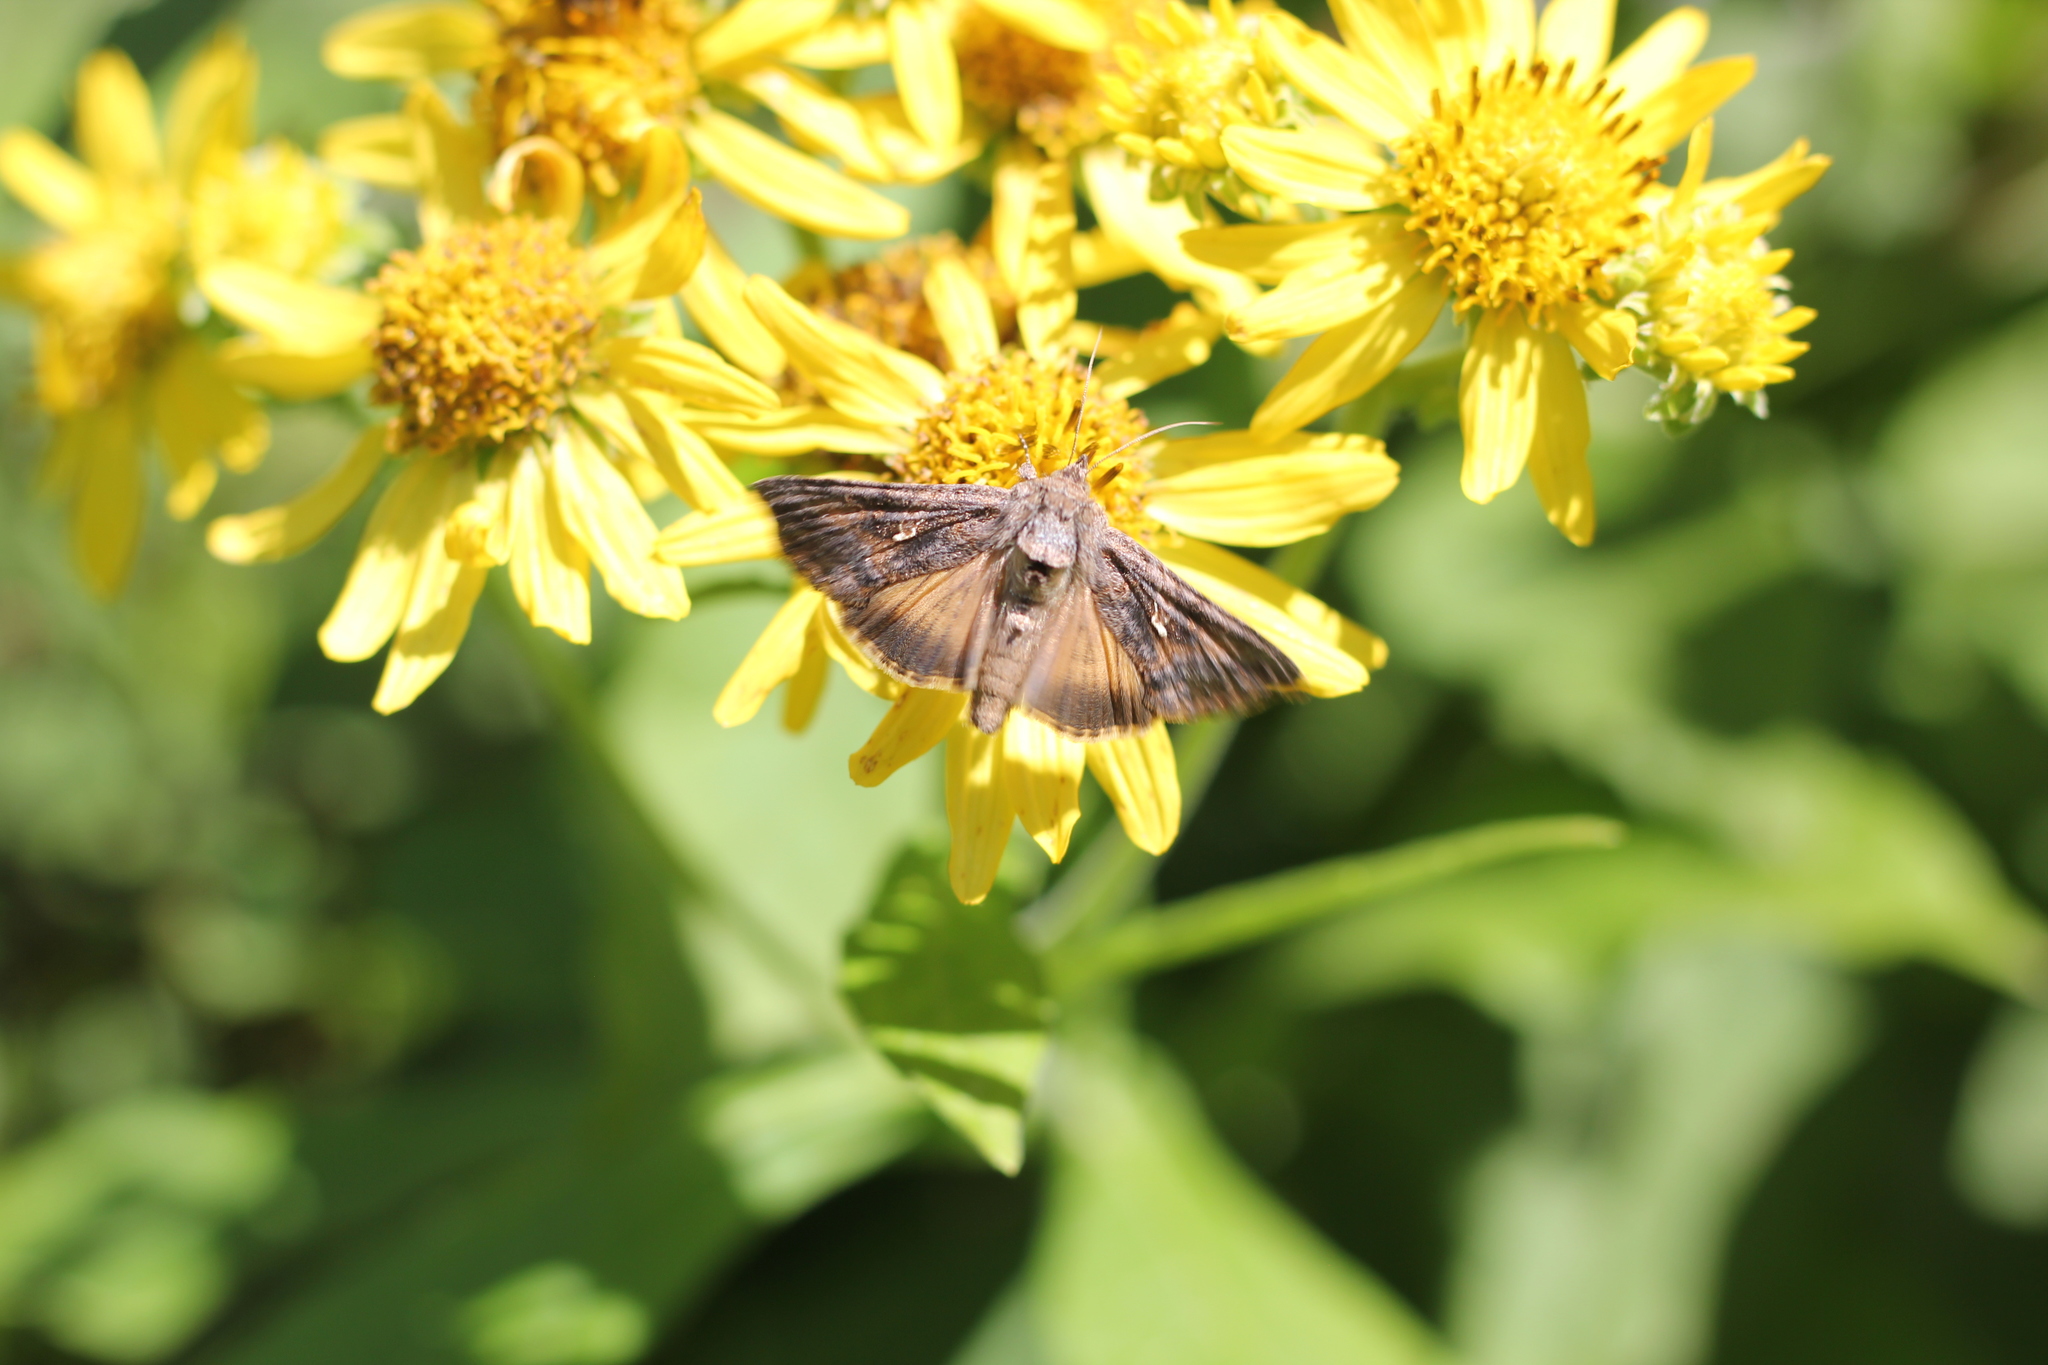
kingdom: Animalia
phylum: Arthropoda
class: Insecta
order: Lepidoptera
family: Noctuidae
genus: Rachiplusia
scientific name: Rachiplusia nu
